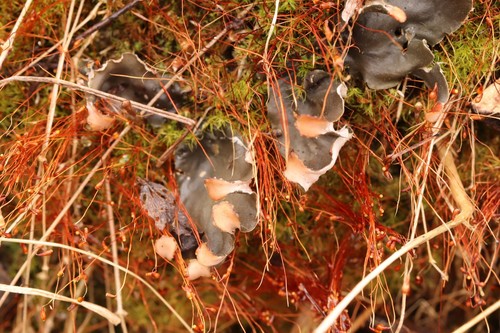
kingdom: Fungi
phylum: Ascomycota
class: Lecanoromycetes
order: Peltigerales
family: Peltigeraceae
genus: Peltigera
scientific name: Peltigera didactyla
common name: Alternating dog lichen
